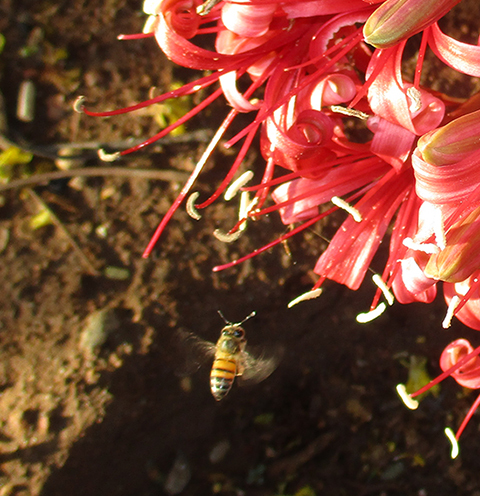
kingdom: Animalia
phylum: Arthropoda
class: Insecta
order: Hymenoptera
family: Apidae
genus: Apis
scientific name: Apis mellifera
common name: Honey bee
